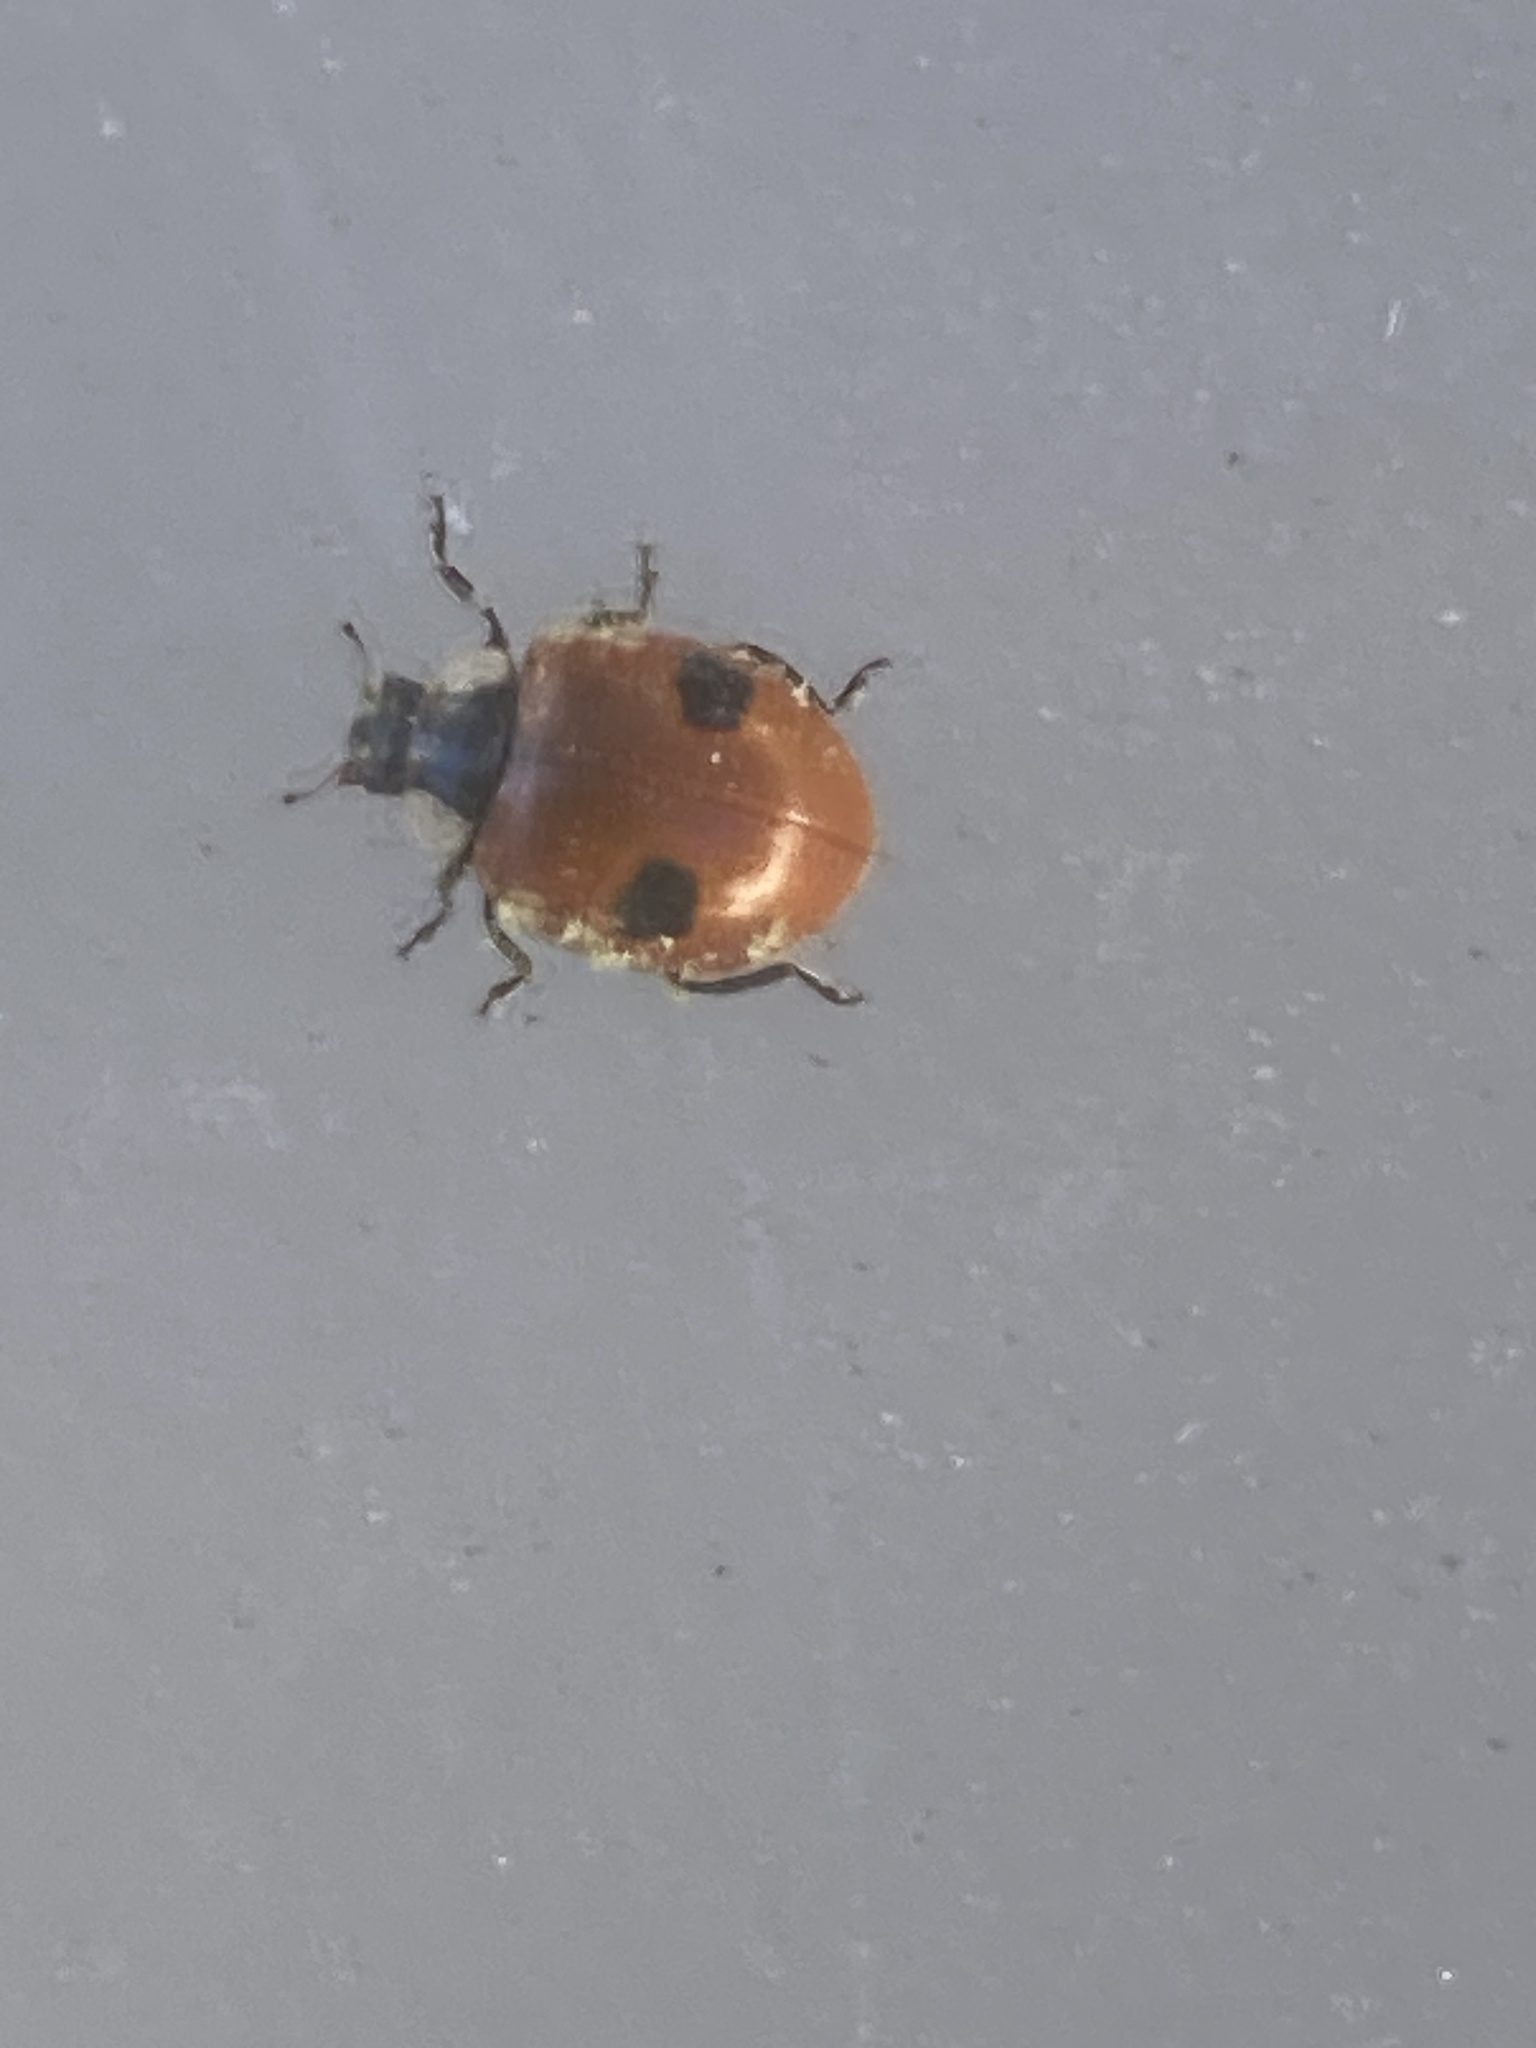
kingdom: Animalia
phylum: Arthropoda
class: Insecta
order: Coleoptera
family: Coccinellidae
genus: Adalia
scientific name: Adalia bipunctata
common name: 2-spot ladybird
